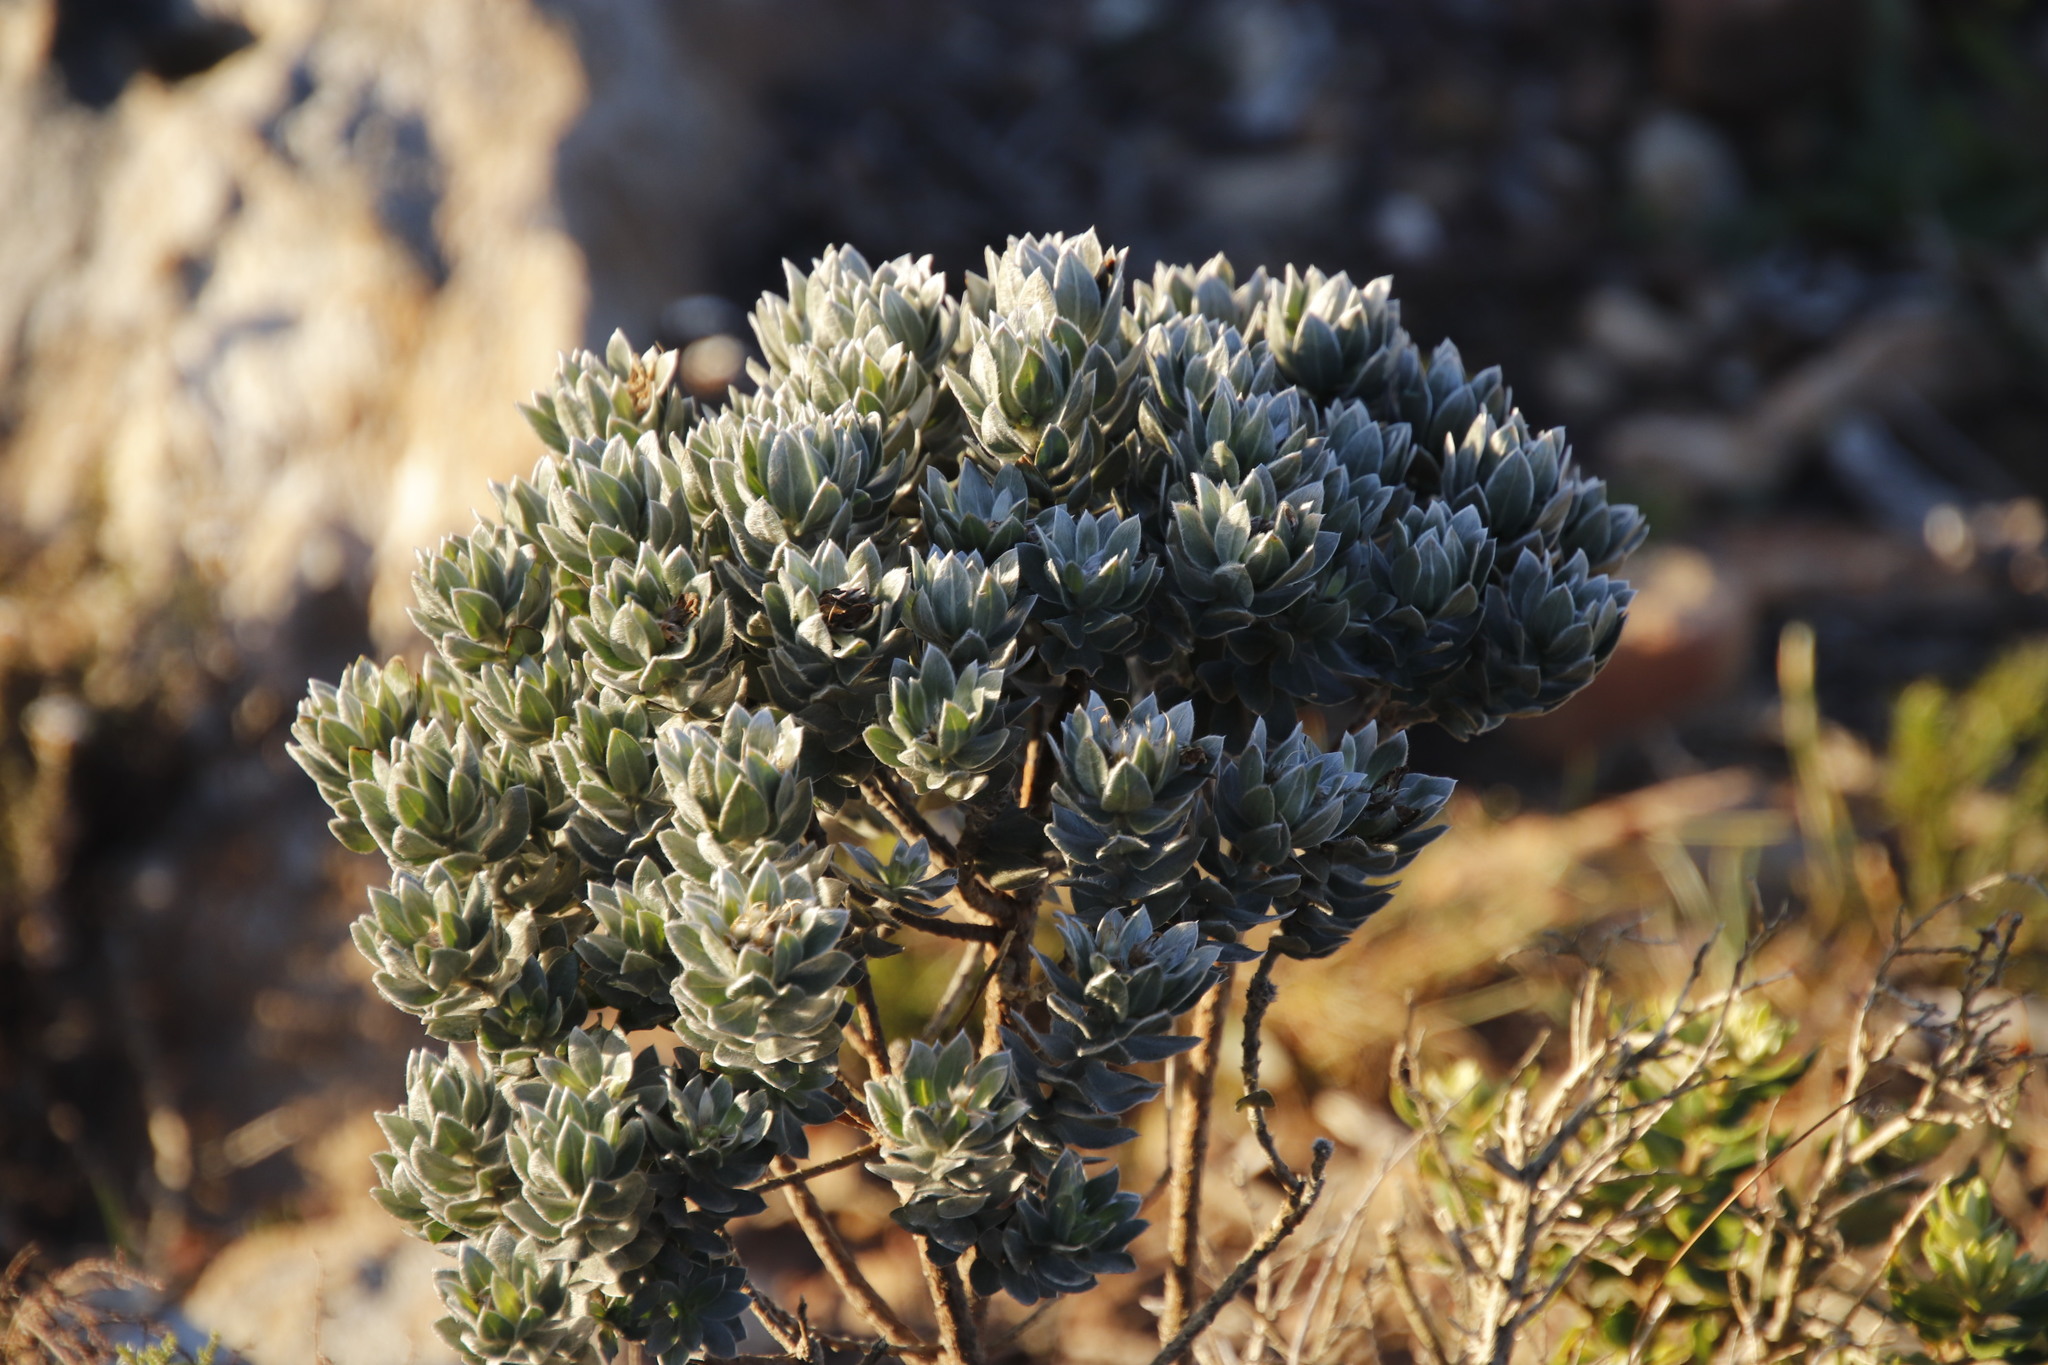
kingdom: Plantae
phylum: Tracheophyta
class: Magnoliopsida
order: Fabales
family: Fabaceae
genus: Xiphotheca
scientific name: Xiphotheca fruticosa
